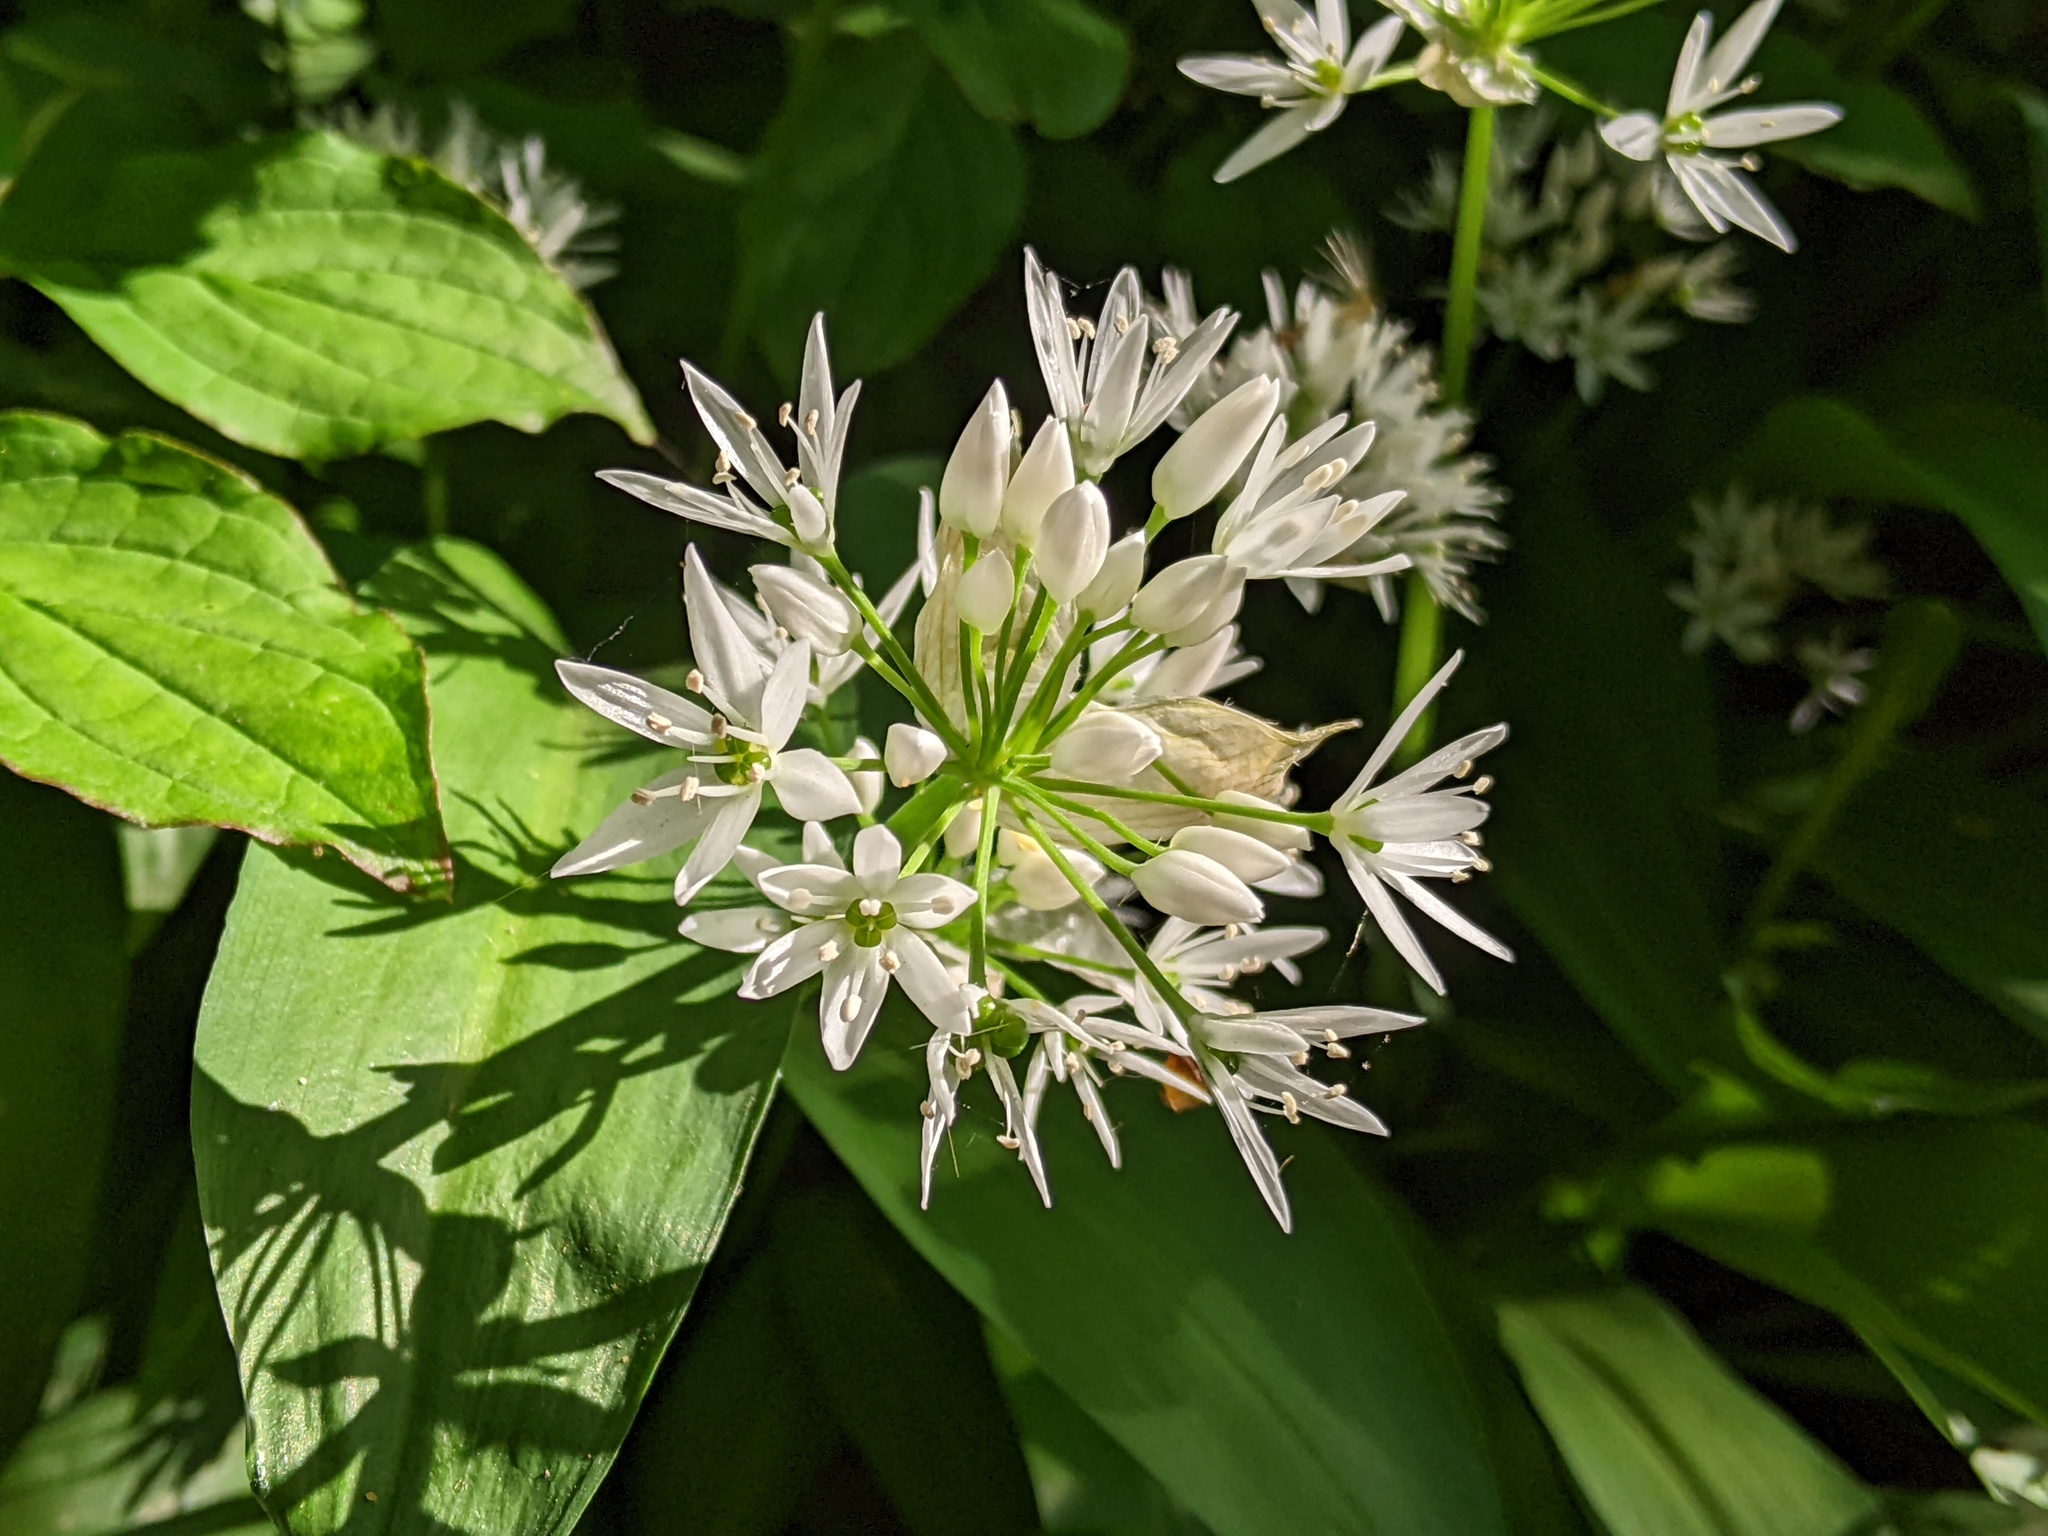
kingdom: Plantae
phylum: Tracheophyta
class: Liliopsida
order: Asparagales
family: Amaryllidaceae
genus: Allium
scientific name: Allium ursinum
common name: Ramsons
